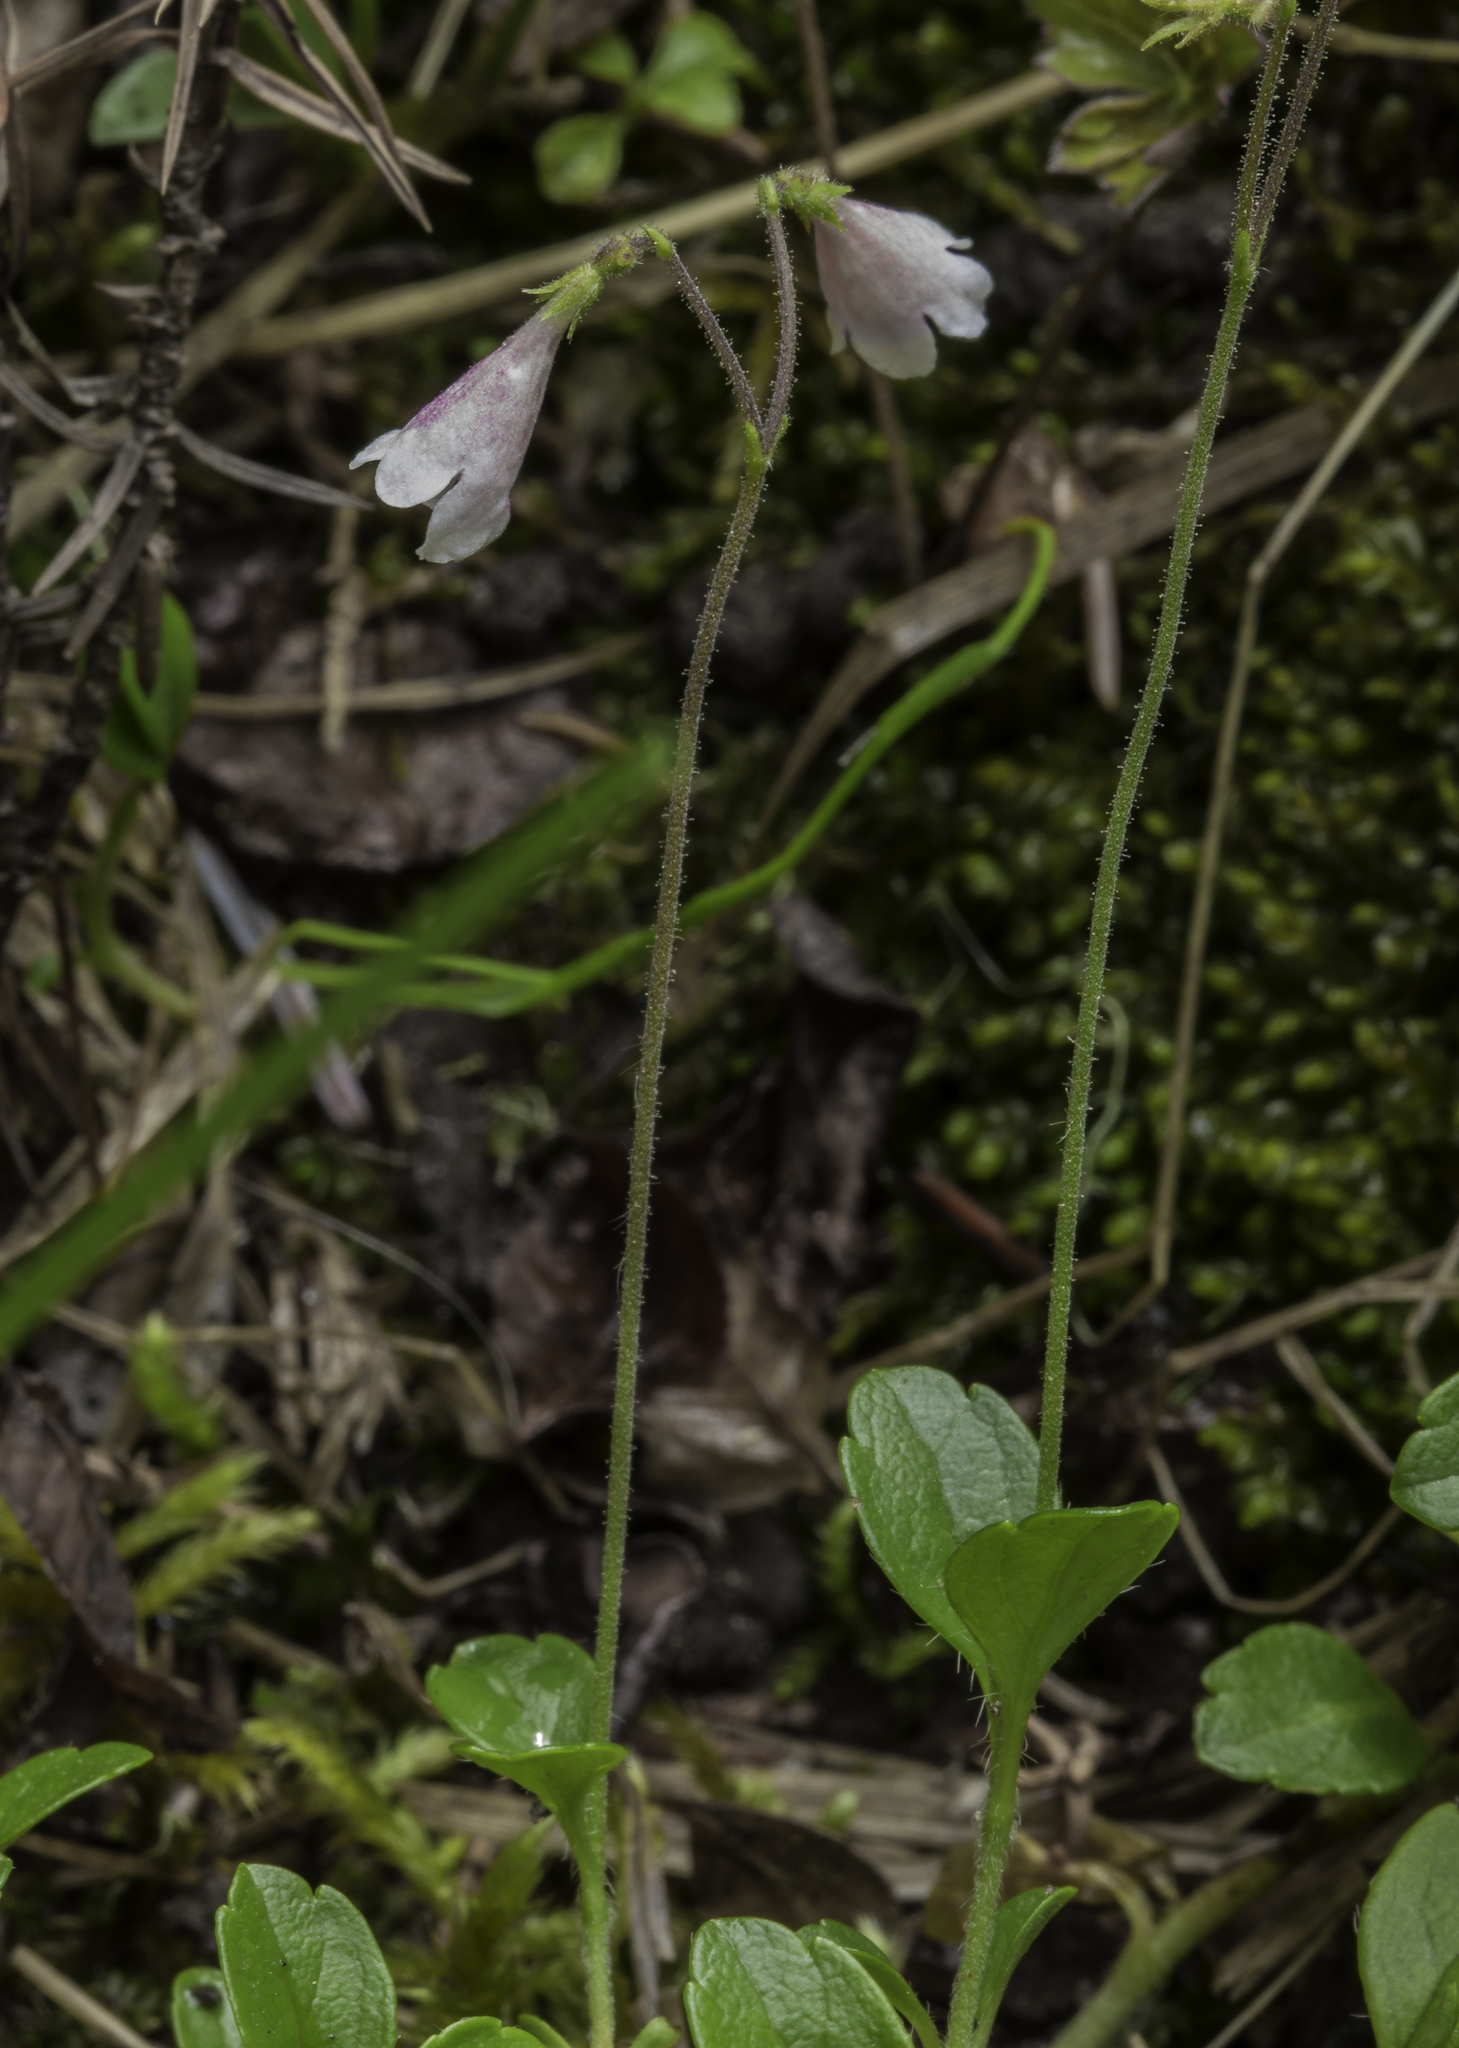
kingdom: Plantae
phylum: Tracheophyta
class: Magnoliopsida
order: Dipsacales
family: Caprifoliaceae
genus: Linnaea
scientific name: Linnaea borealis
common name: Twinflower
